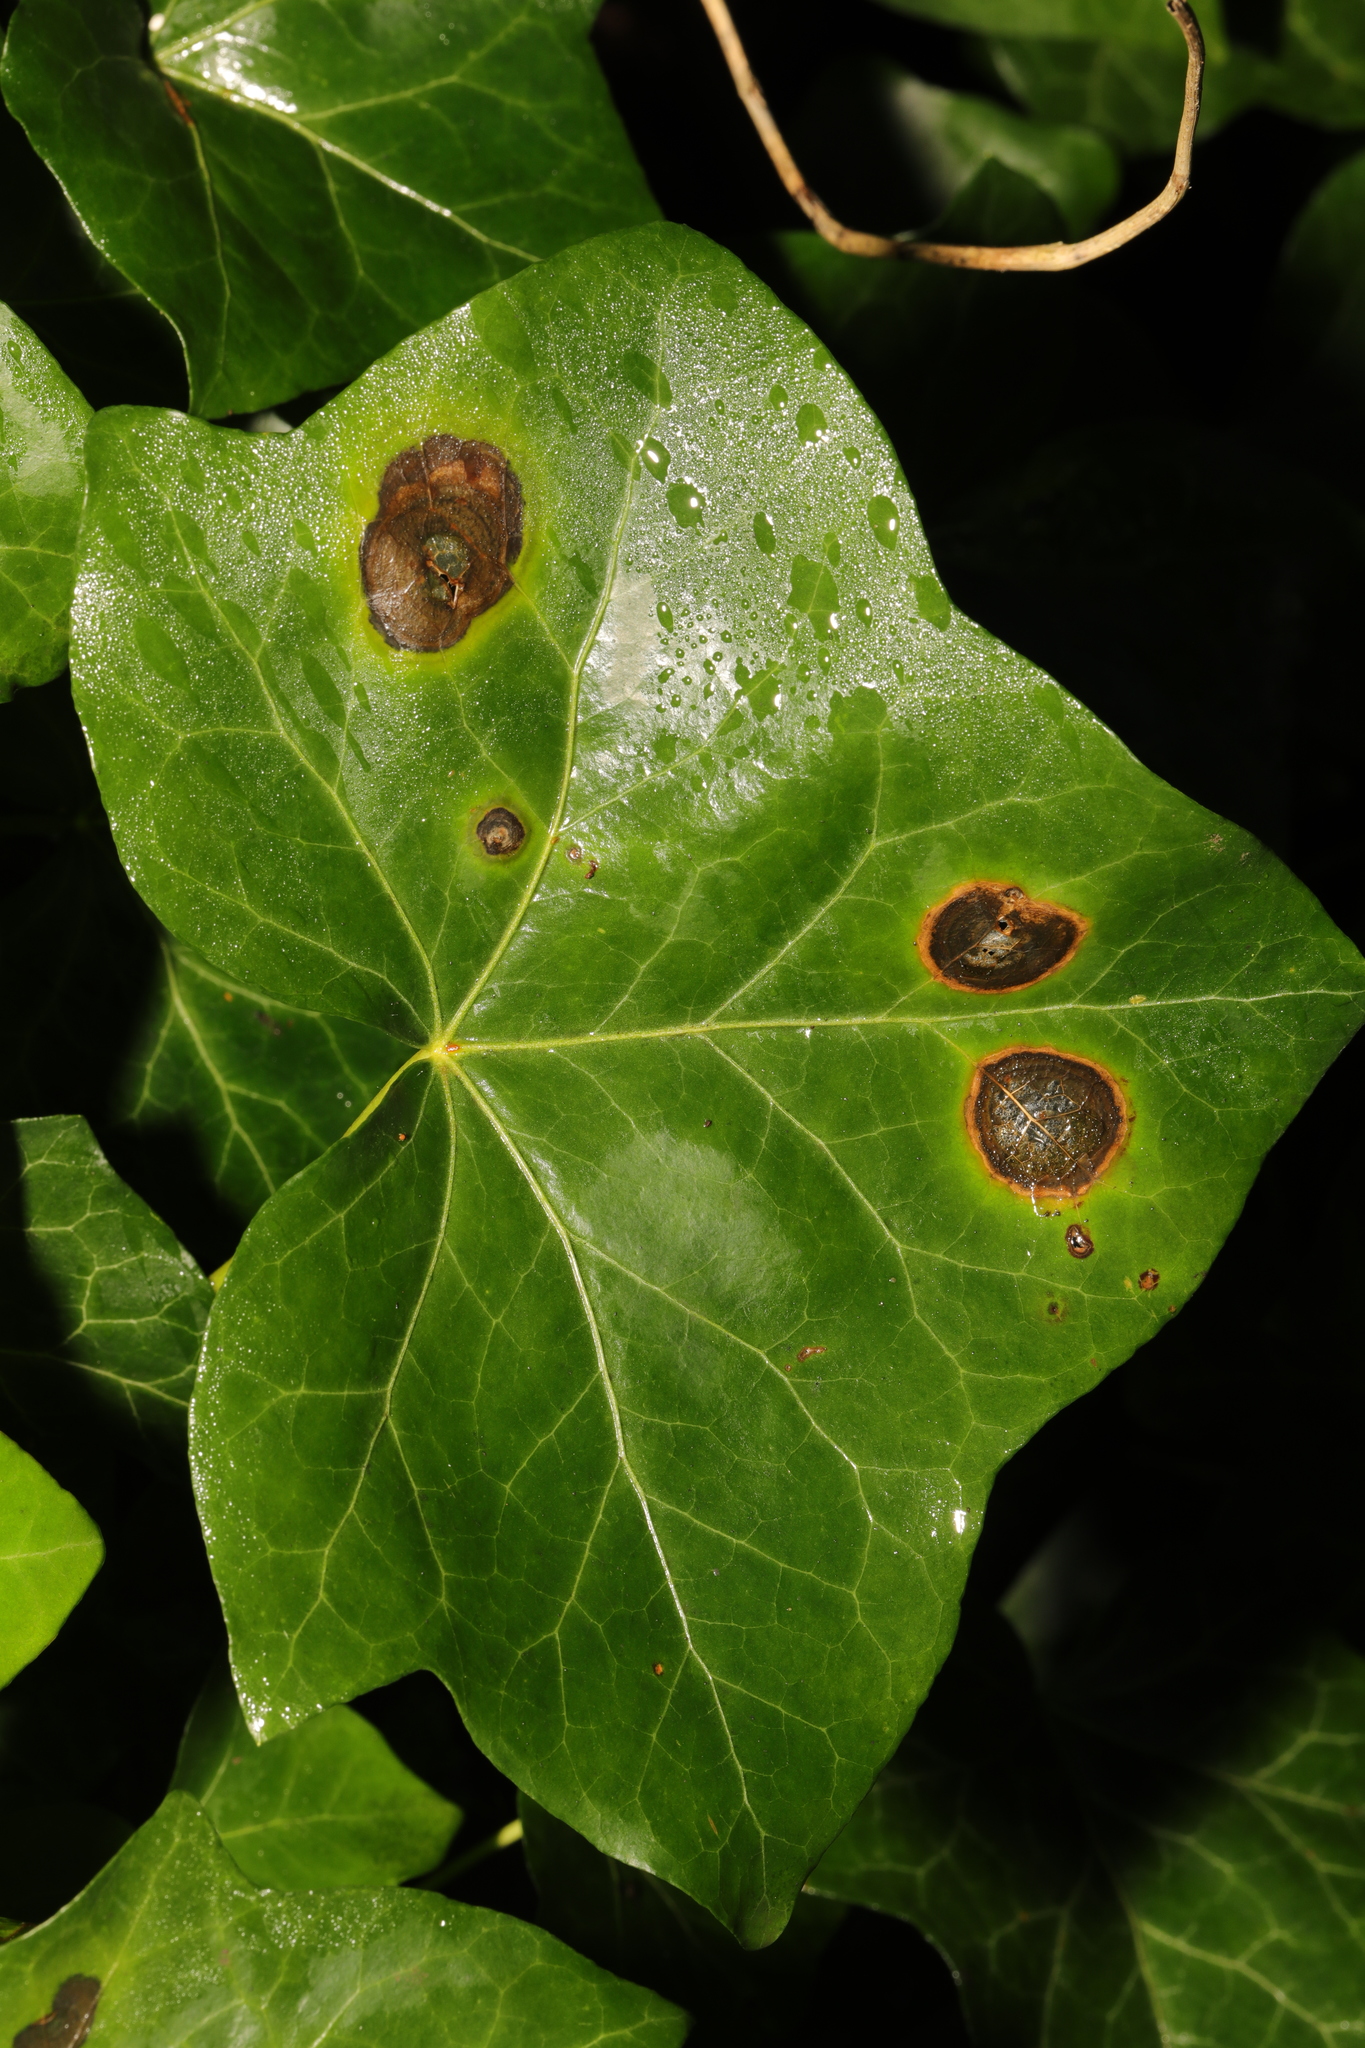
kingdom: Fungi
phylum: Ascomycota
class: Dothideomycetes
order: Pleosporales
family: Didymellaceae
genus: Boeremia
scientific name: Boeremia hedericola
